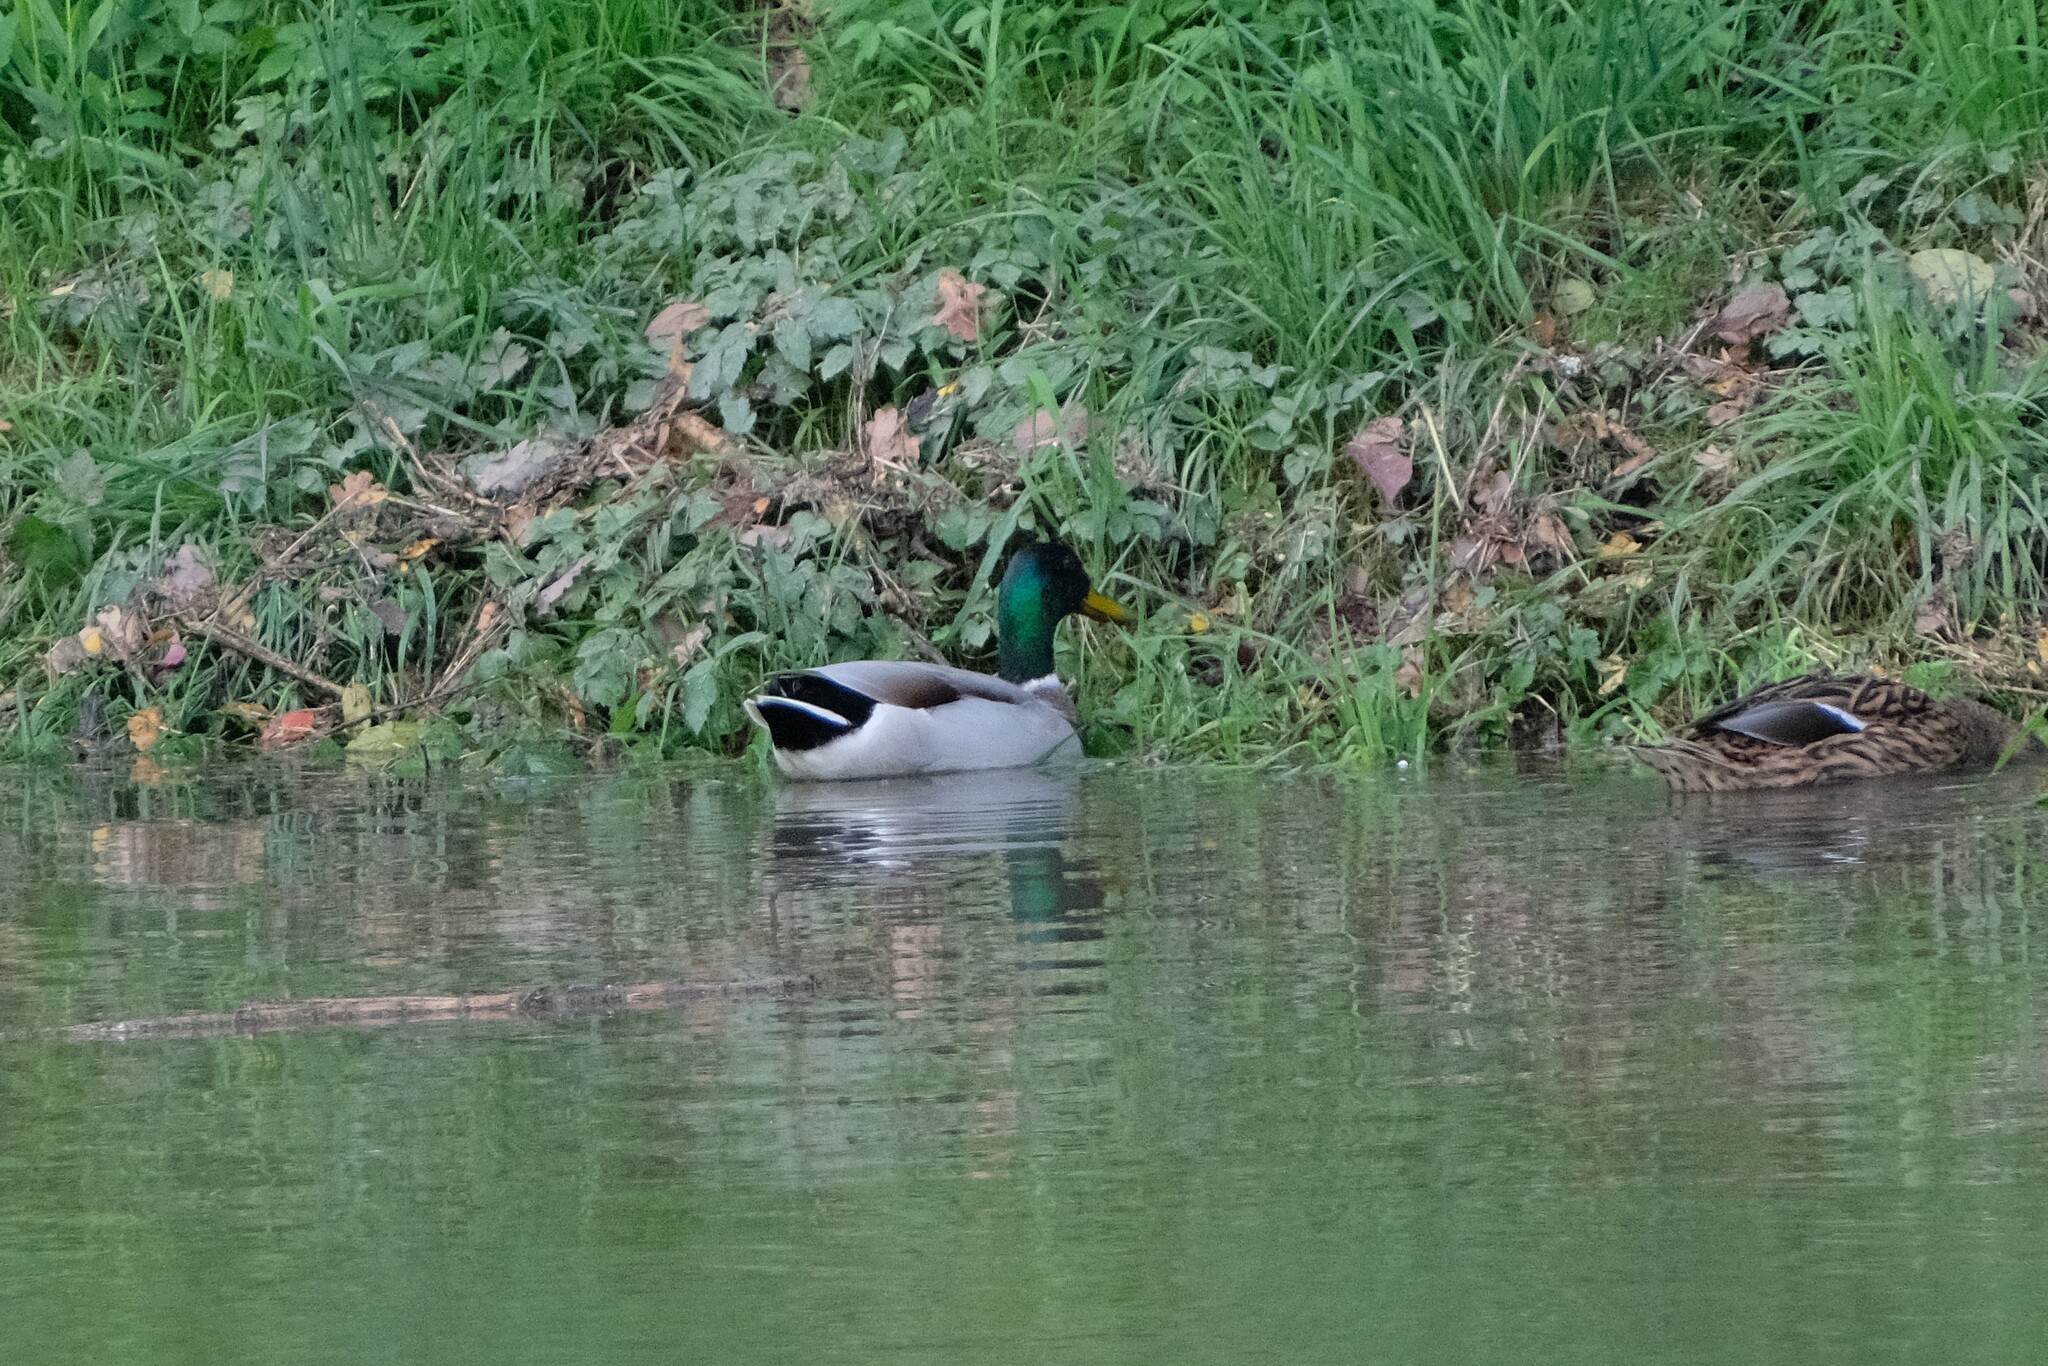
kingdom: Animalia
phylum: Chordata
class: Aves
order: Anseriformes
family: Anatidae
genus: Anas
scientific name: Anas platyrhynchos
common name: Mallard
